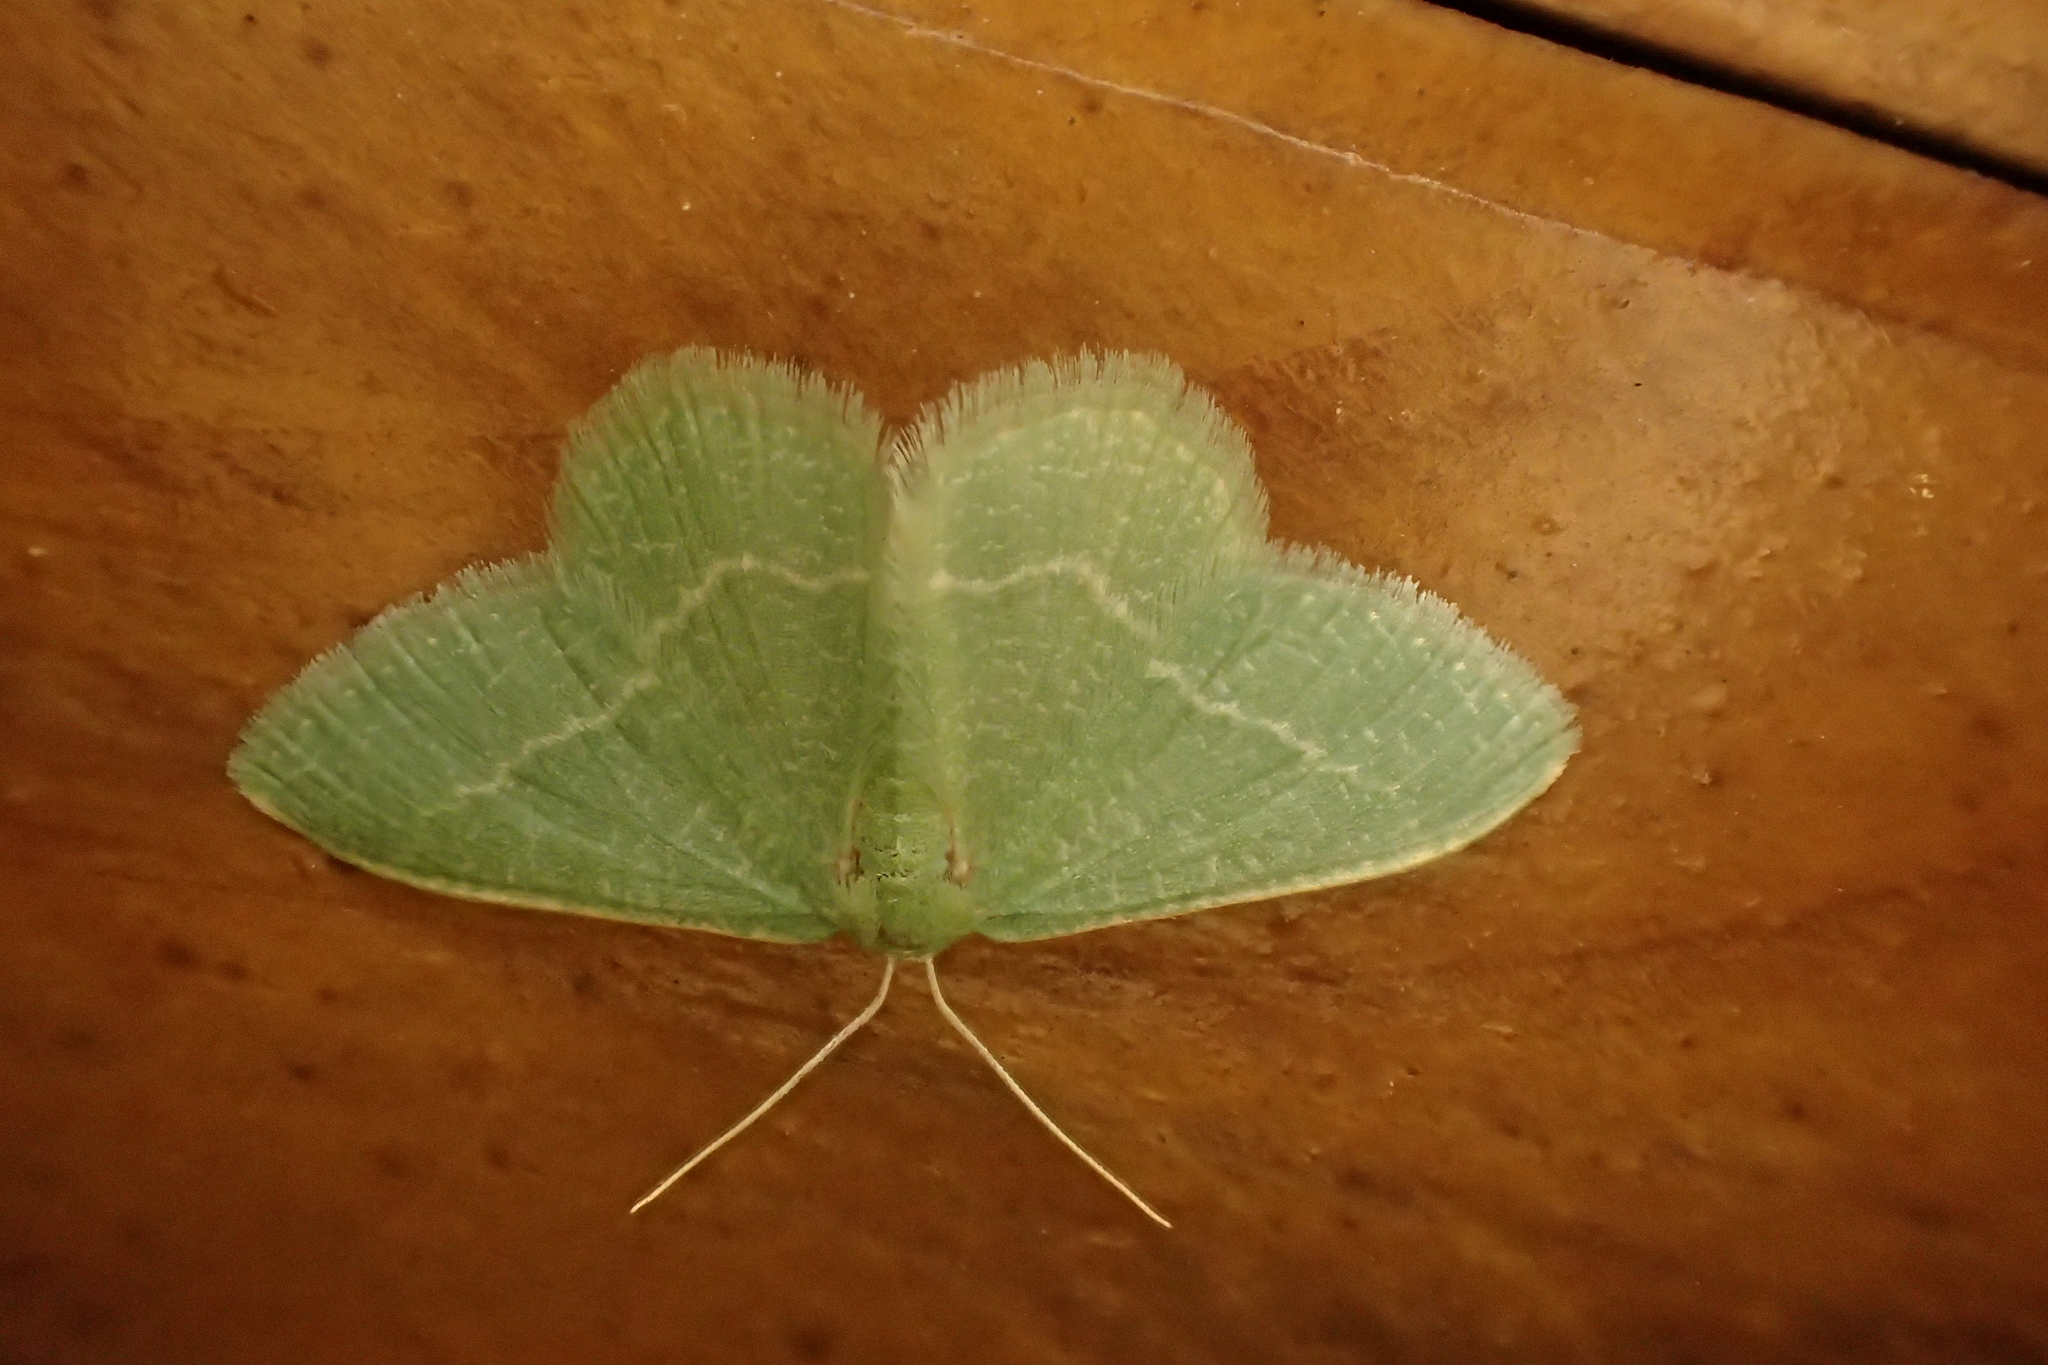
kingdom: Animalia
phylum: Arthropoda
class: Insecta
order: Lepidoptera
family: Geometridae
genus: Chlorissa
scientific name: Chlorissa etruscaria
